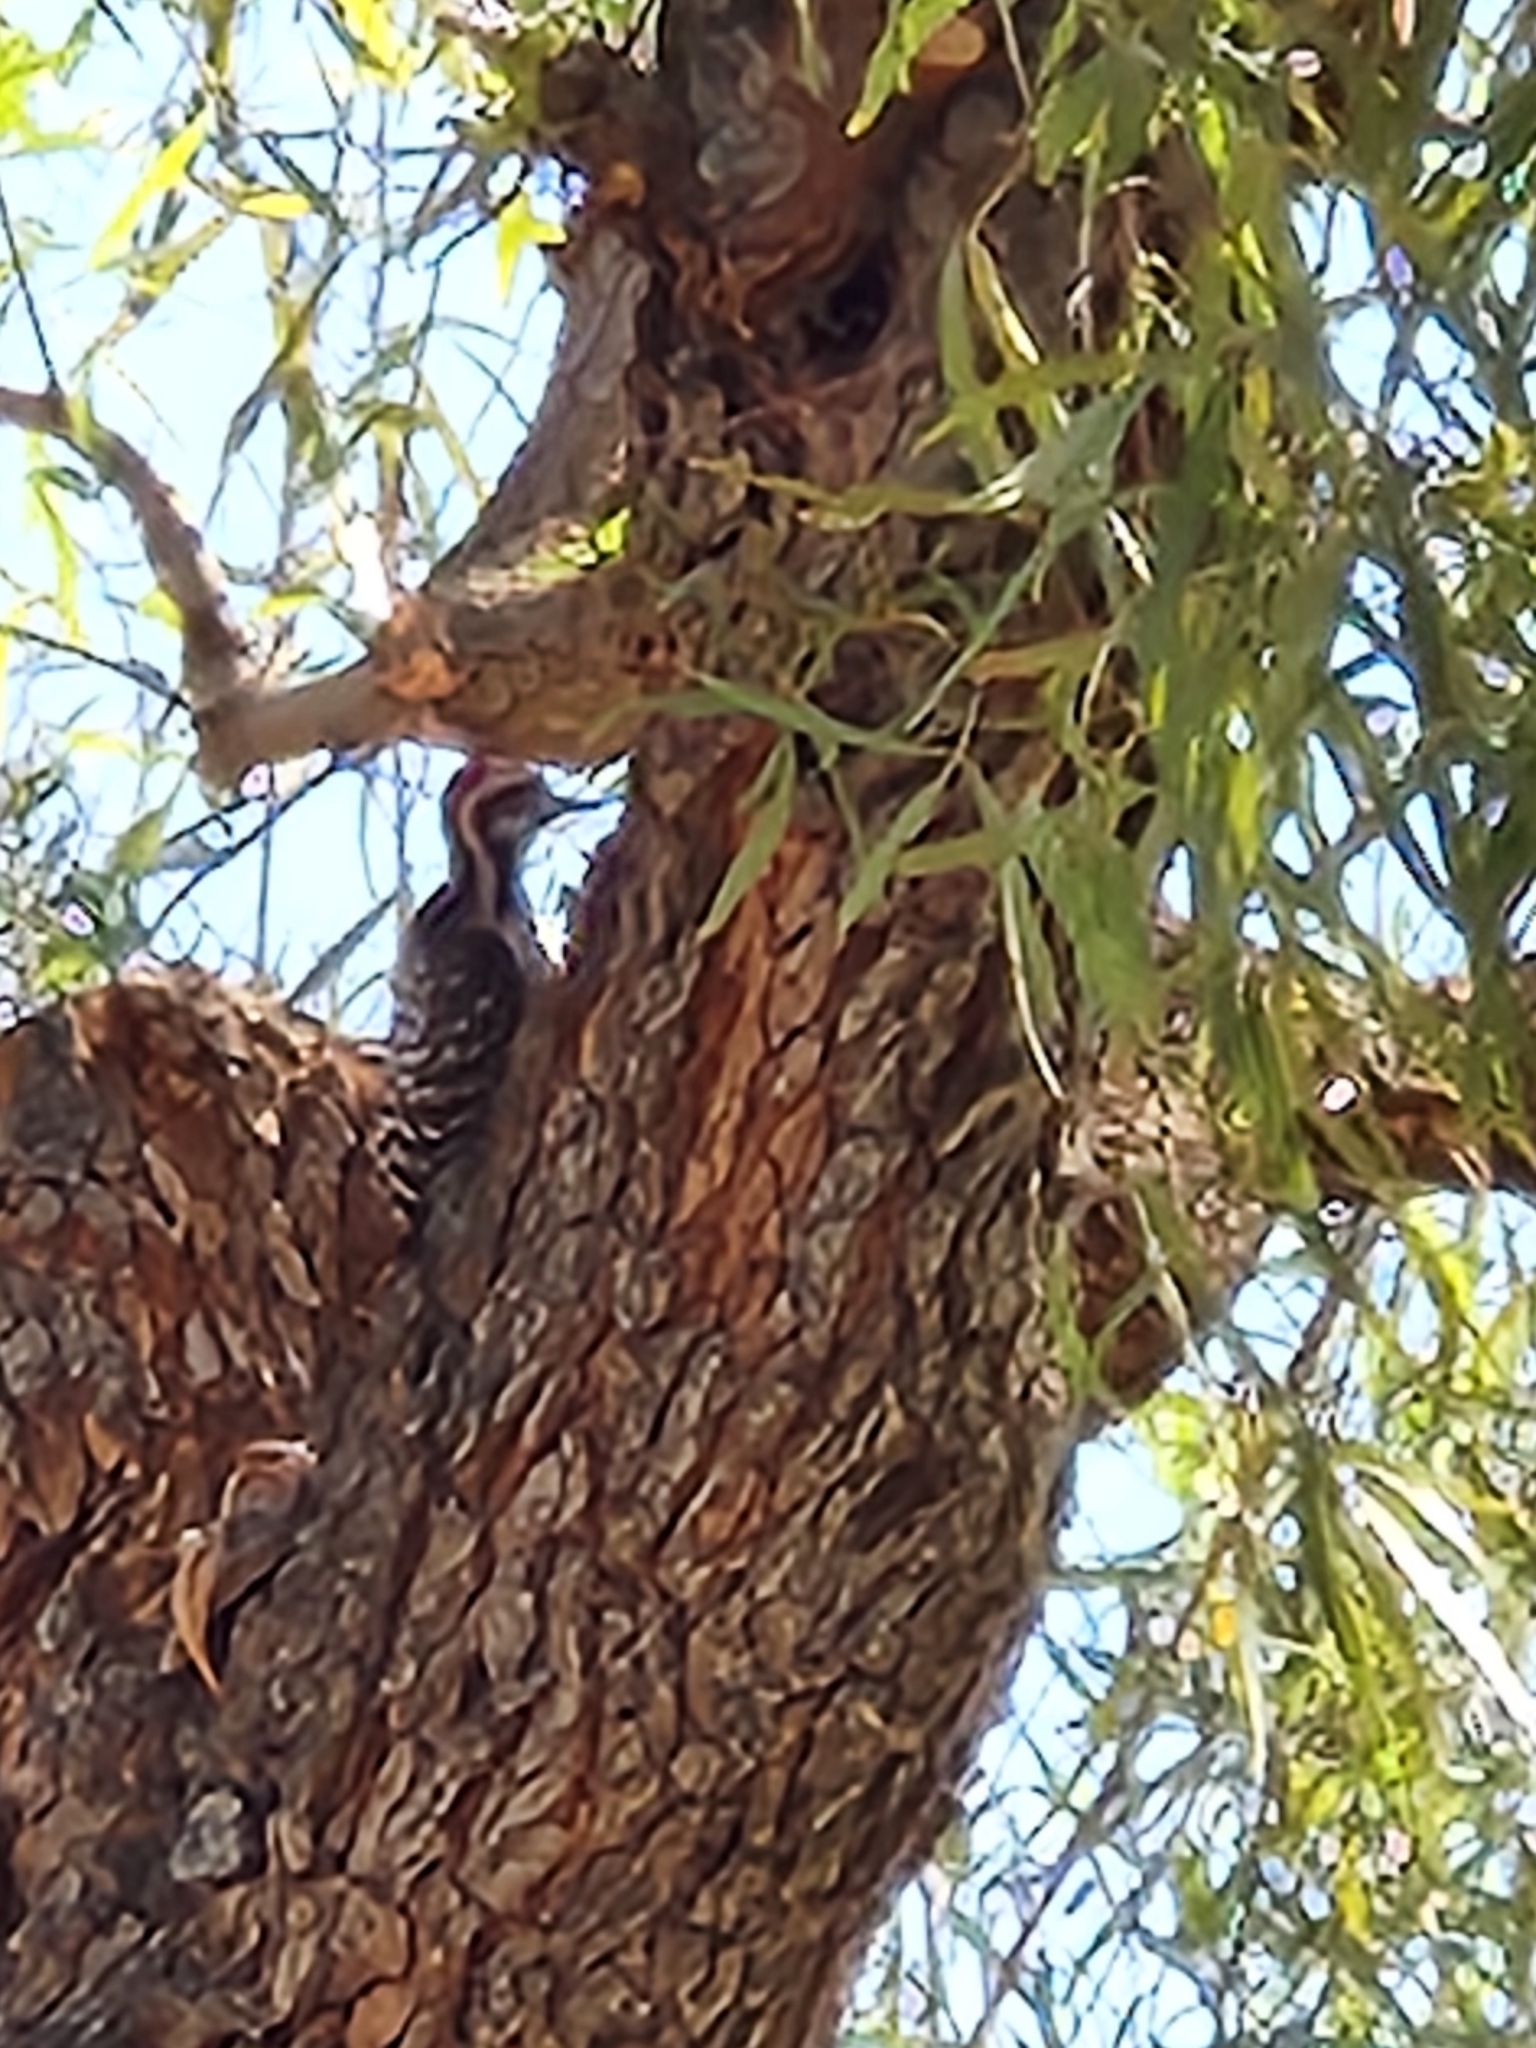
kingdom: Animalia
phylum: Chordata
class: Aves
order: Piciformes
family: Picidae
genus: Dryobates
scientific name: Dryobates scalaris
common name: Ladder-backed woodpecker
